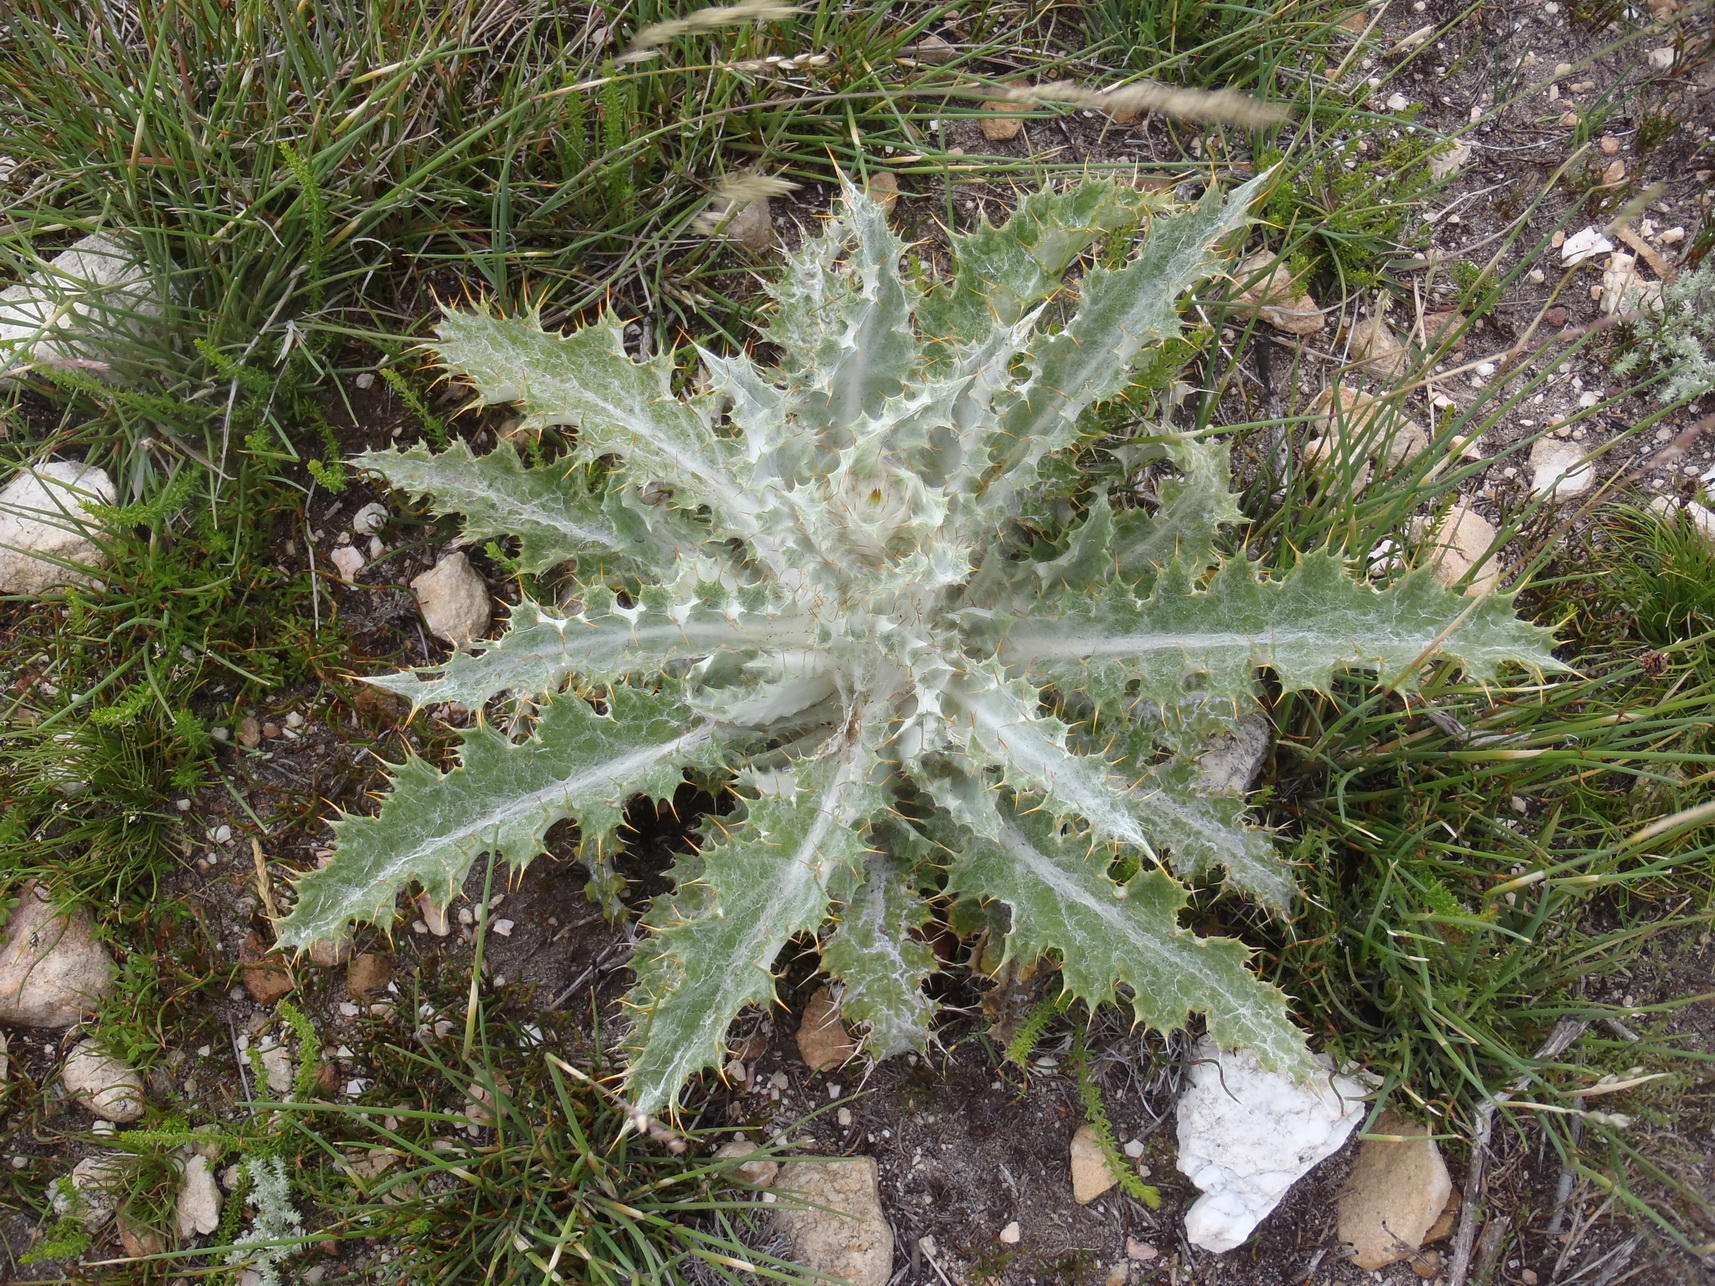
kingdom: Plantae
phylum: Tracheophyta
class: Magnoliopsida
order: Asterales
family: Asteraceae
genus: Berkheya
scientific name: Berkheya francisci
